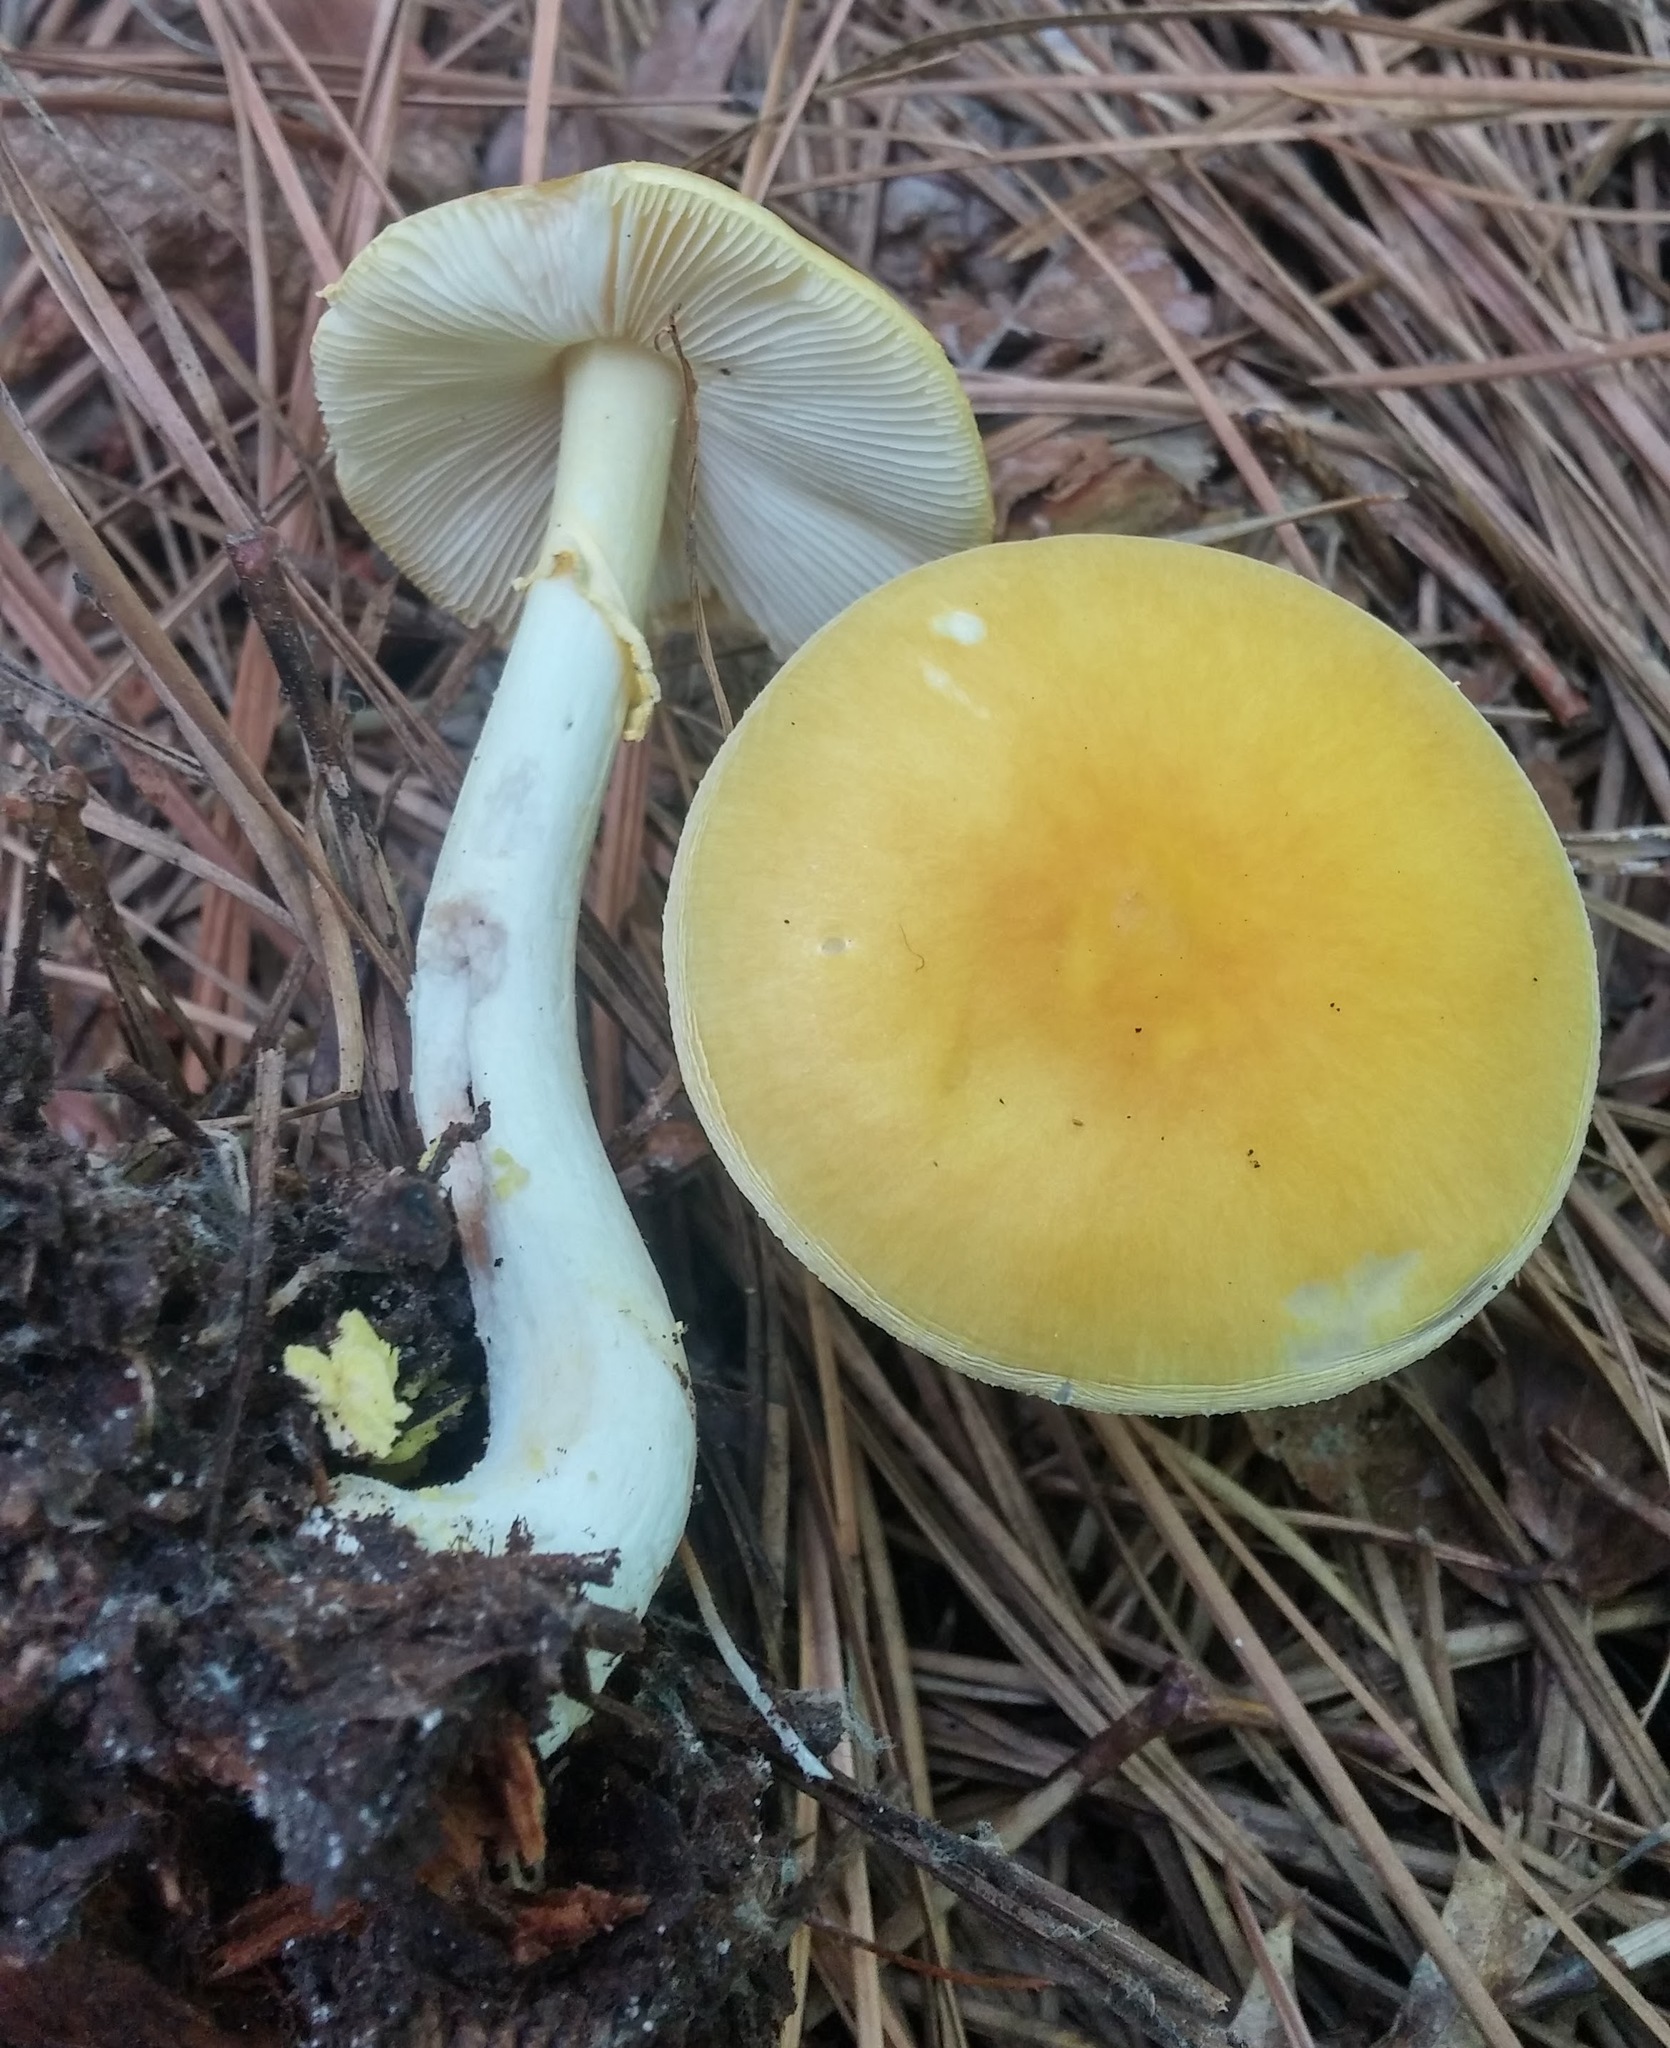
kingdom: Fungi
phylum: Basidiomycota
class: Agaricomycetes
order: Agaricales
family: Amanitaceae
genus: Amanita
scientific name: Amanita flavorubens
